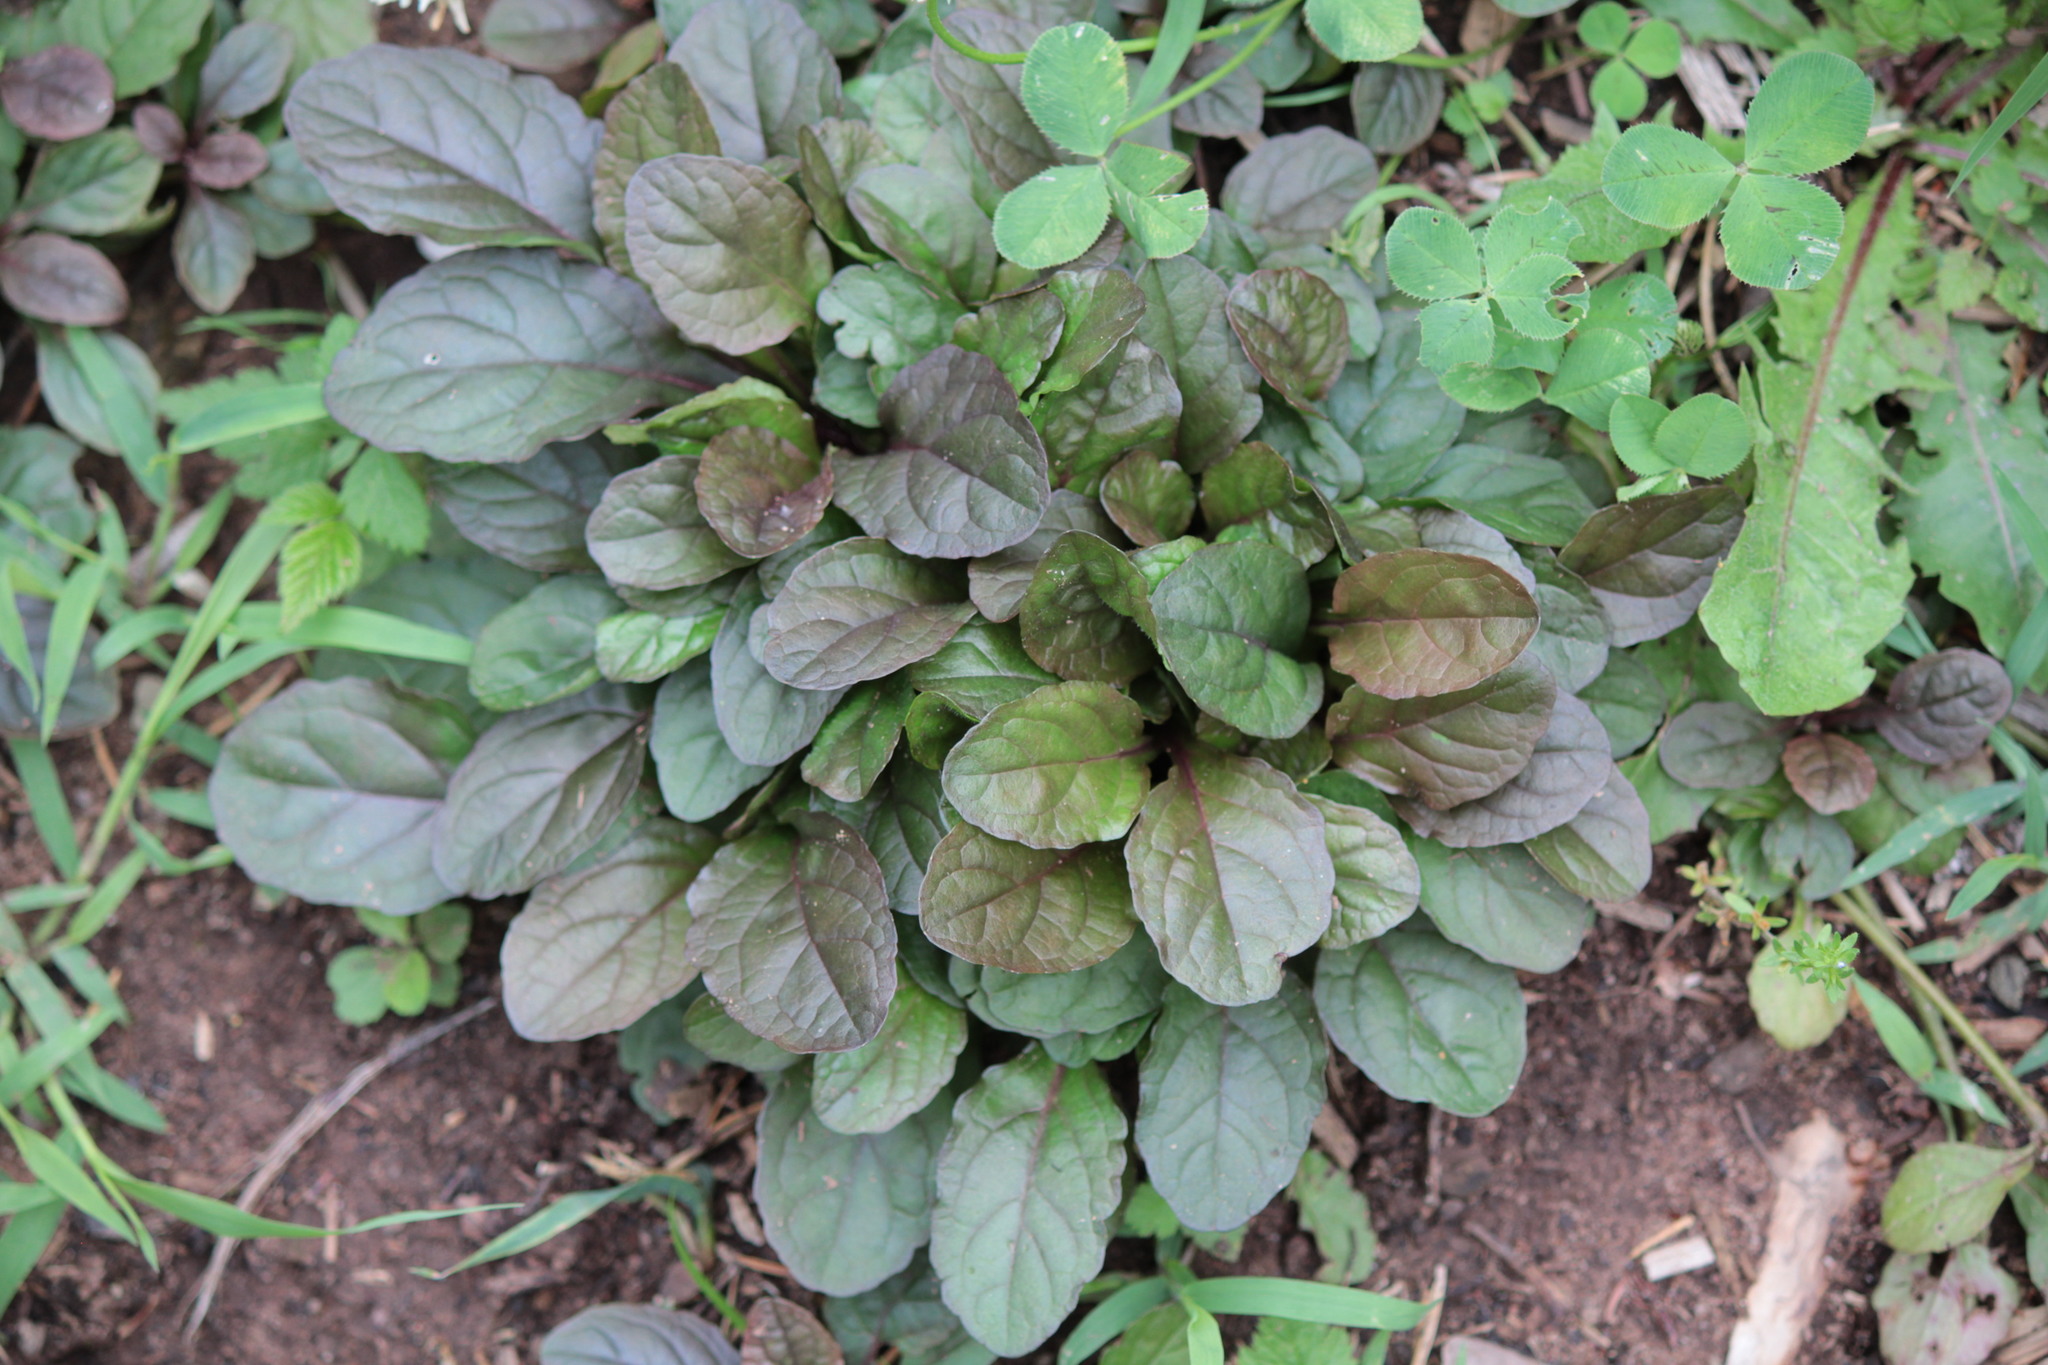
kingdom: Plantae
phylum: Tracheophyta
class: Magnoliopsida
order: Lamiales
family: Lamiaceae
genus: Ajuga
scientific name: Ajuga reptans
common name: Bugle
